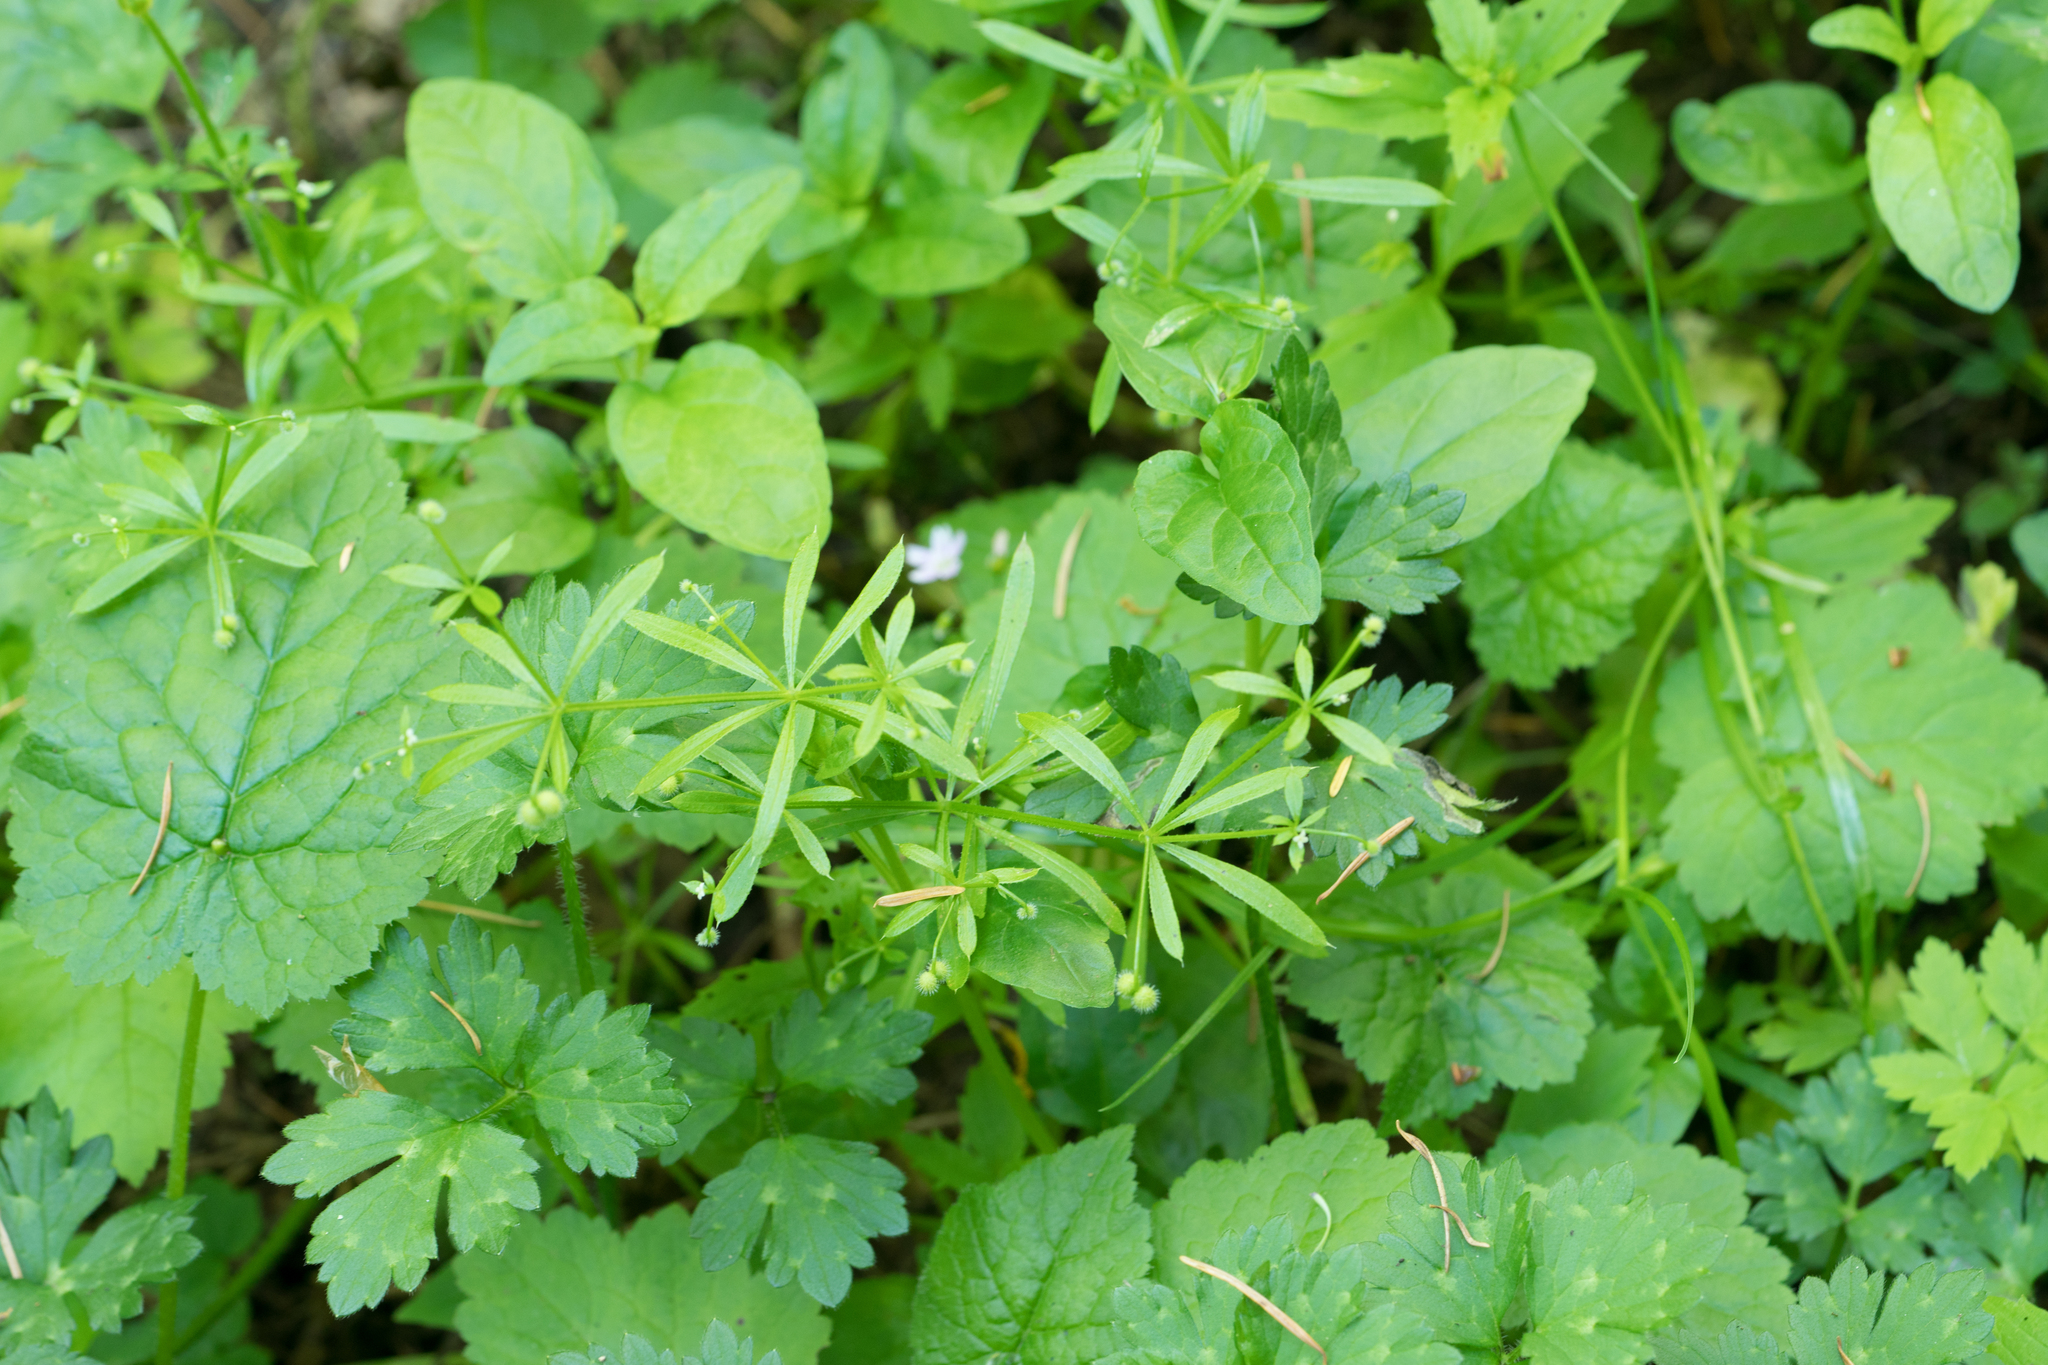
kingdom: Plantae
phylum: Tracheophyta
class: Magnoliopsida
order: Gentianales
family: Rubiaceae
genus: Galium
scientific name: Galium aparine
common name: Cleavers
